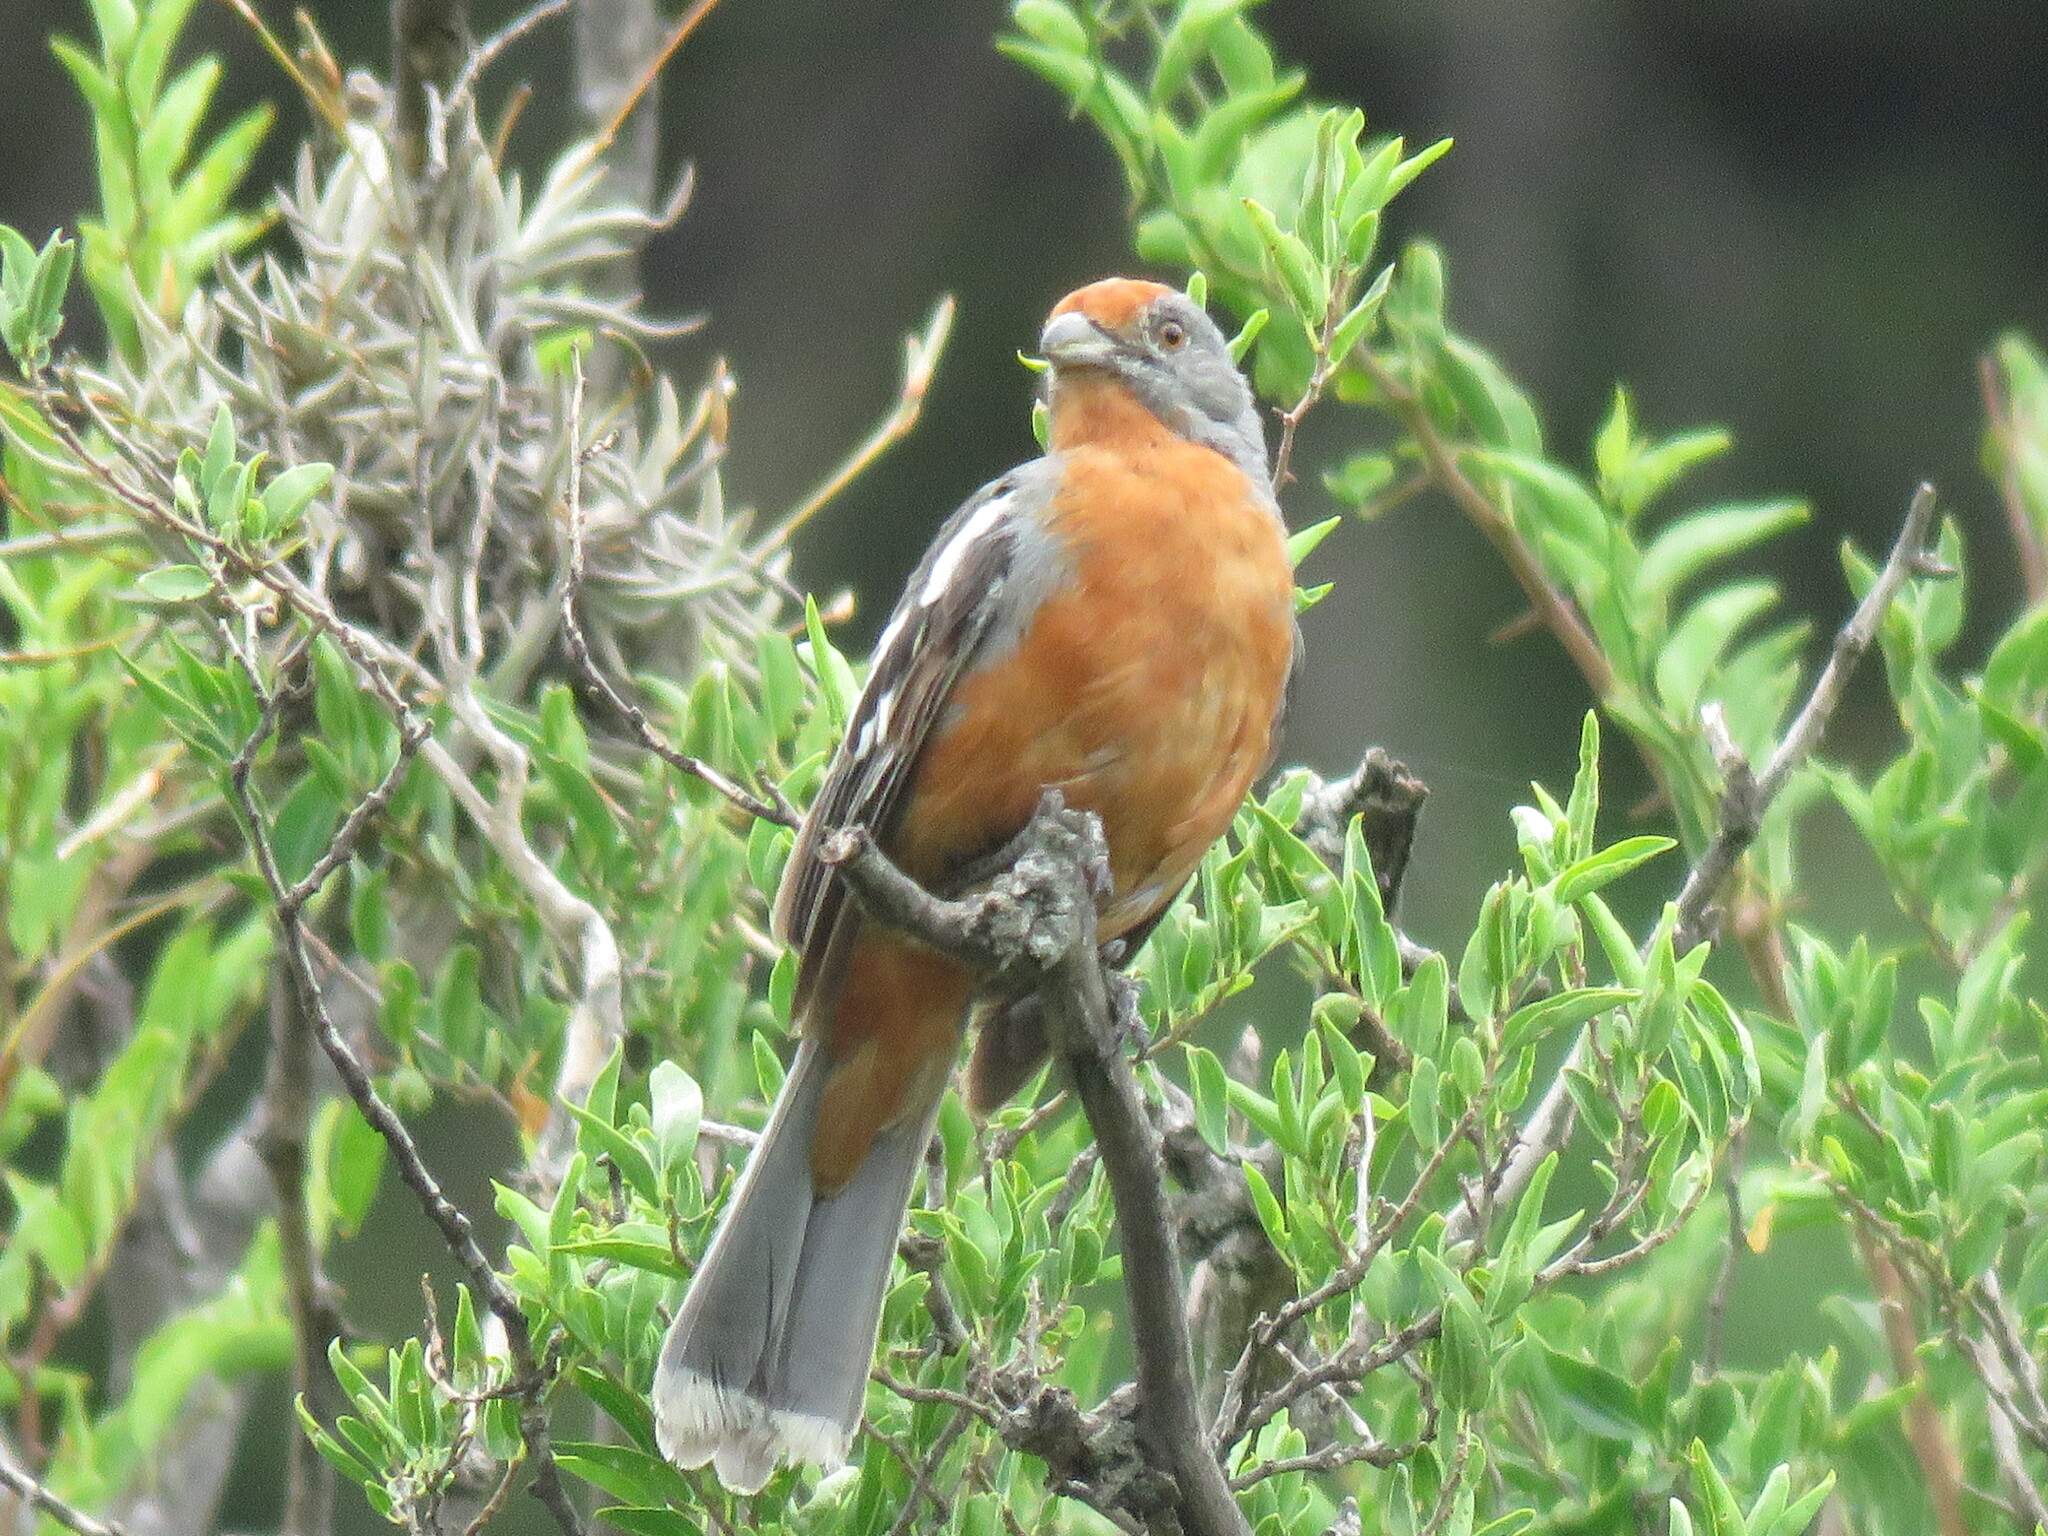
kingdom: Animalia
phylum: Chordata
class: Aves
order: Passeriformes
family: Cotingidae
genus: Phytotoma
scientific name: Phytotoma rutila
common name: White-tipped plantcutter
